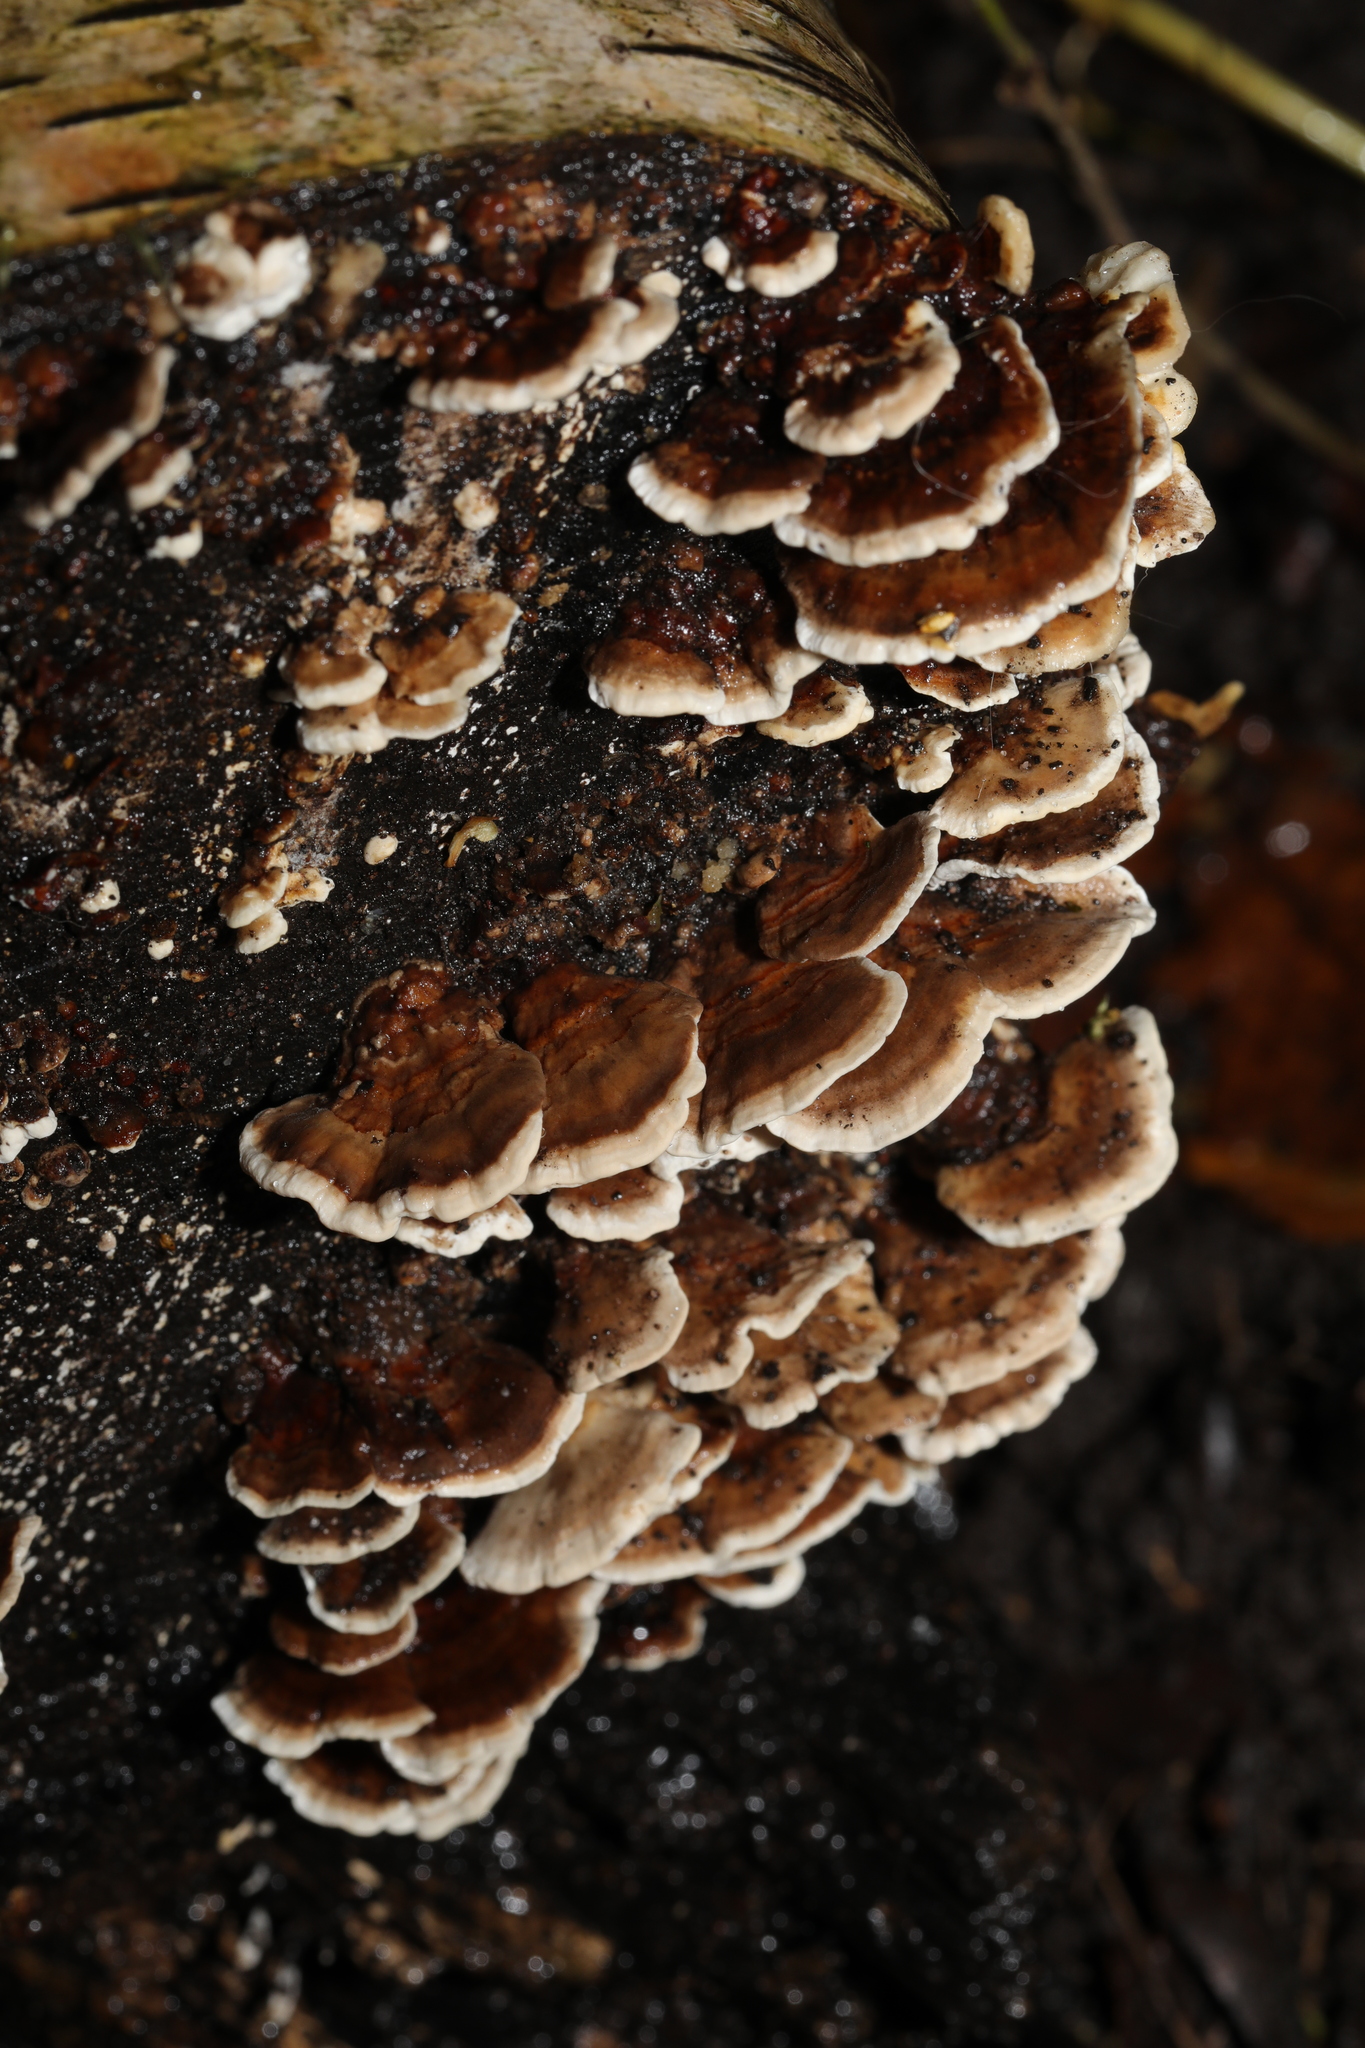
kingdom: Fungi
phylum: Basidiomycota
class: Agaricomycetes
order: Polyporales
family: Polyporaceae
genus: Trametes
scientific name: Trametes versicolor
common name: Turkeytail
